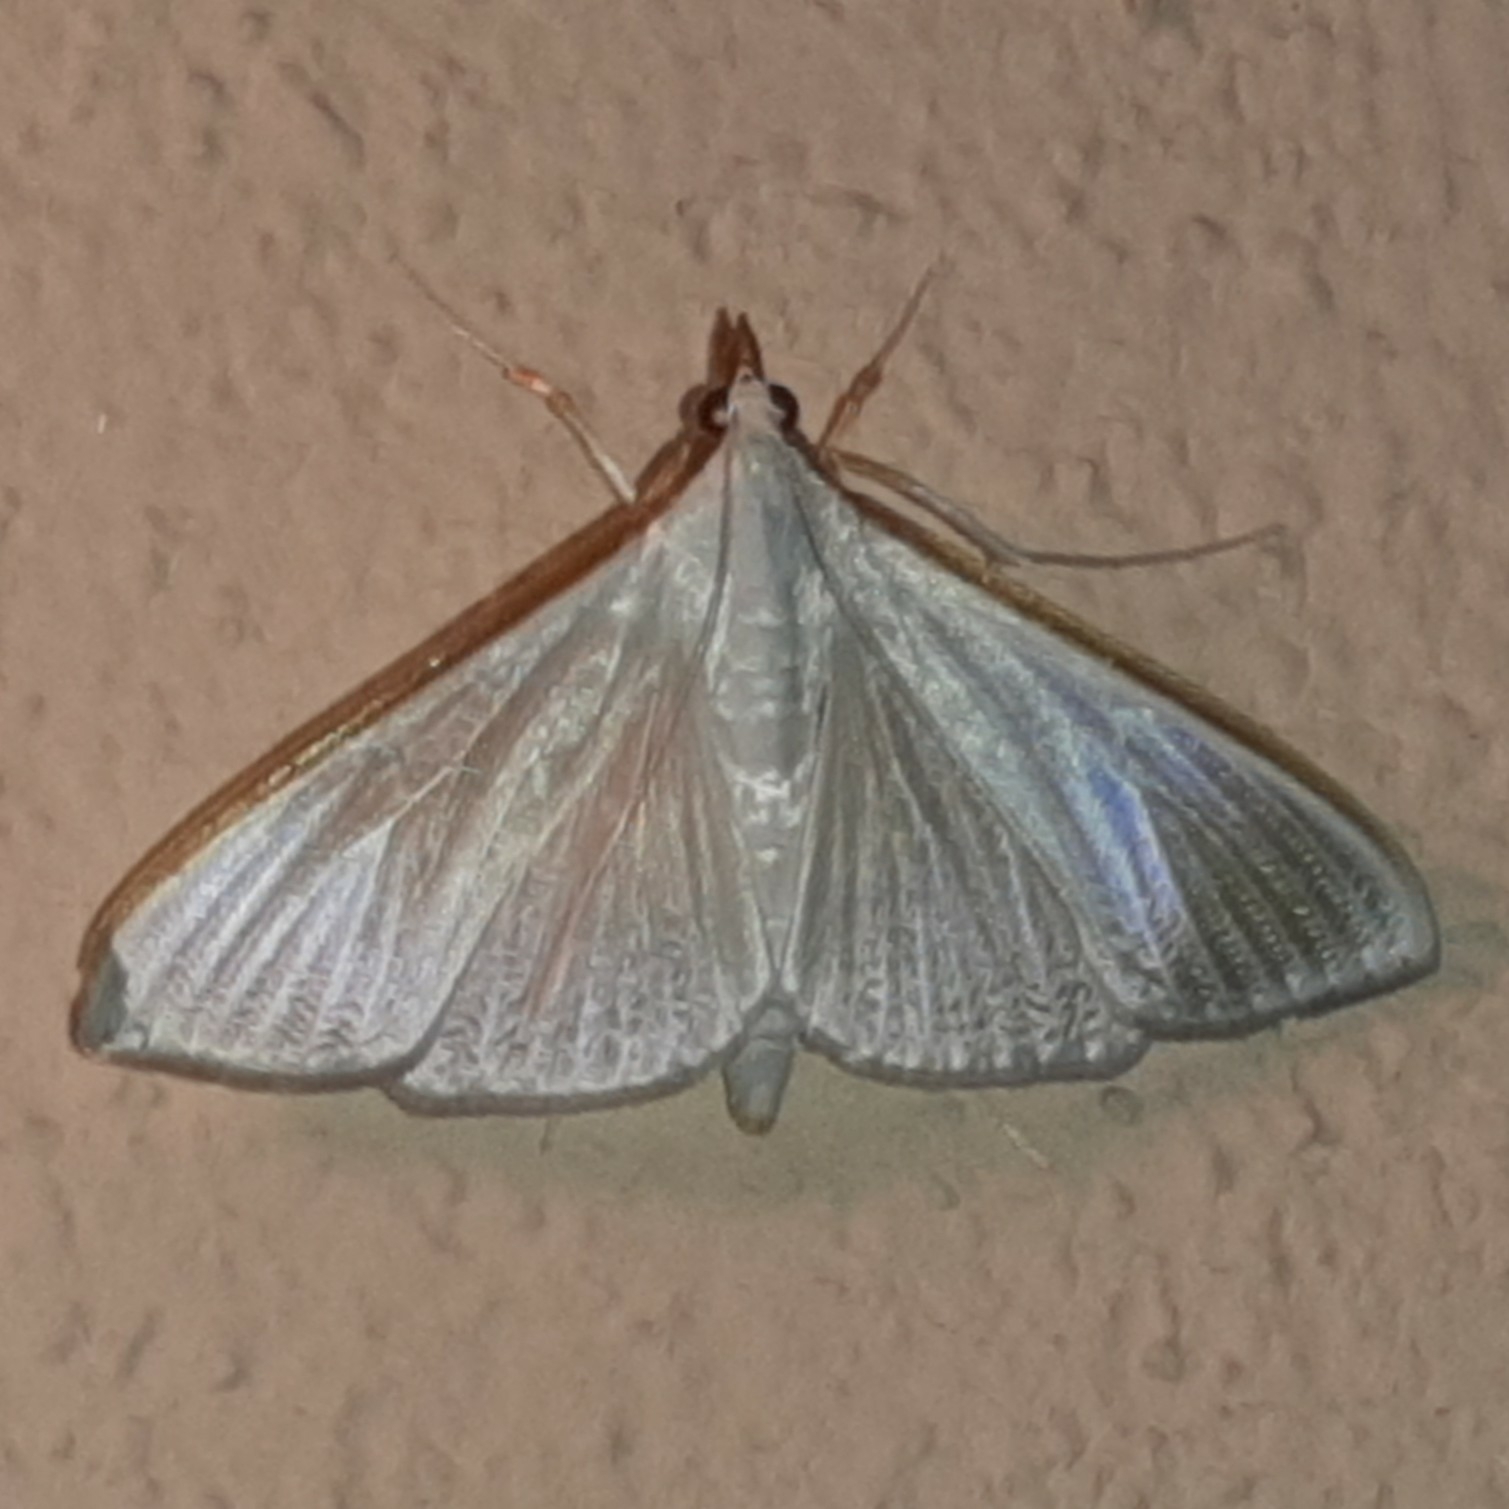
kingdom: Animalia
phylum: Arthropoda
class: Insecta
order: Lepidoptera
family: Crambidae
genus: Diaphania
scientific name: Diaphania glauculalis
